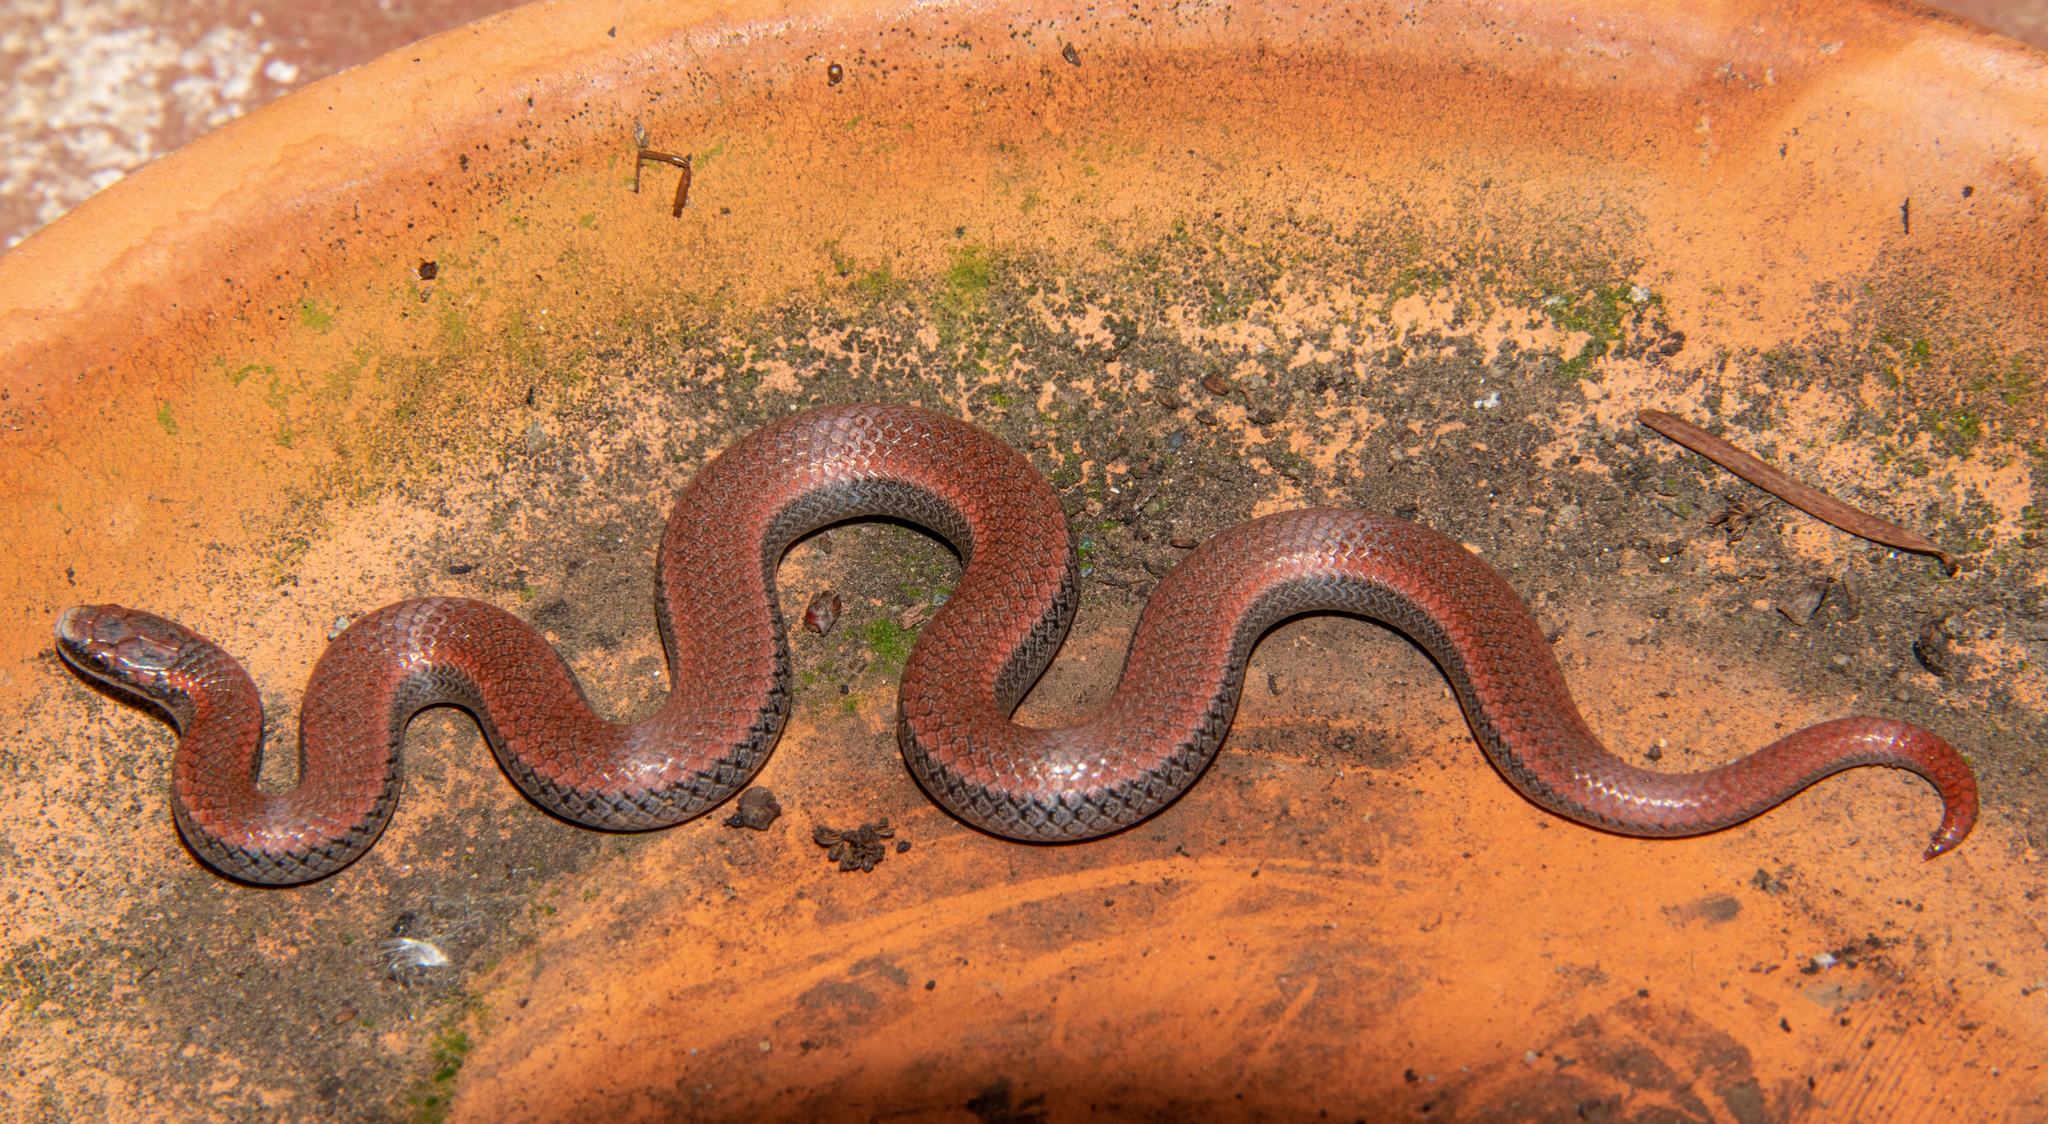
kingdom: Animalia
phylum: Chordata
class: Squamata
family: Colubridae
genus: Contia
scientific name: Contia tenuis
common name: Sharptail snake
